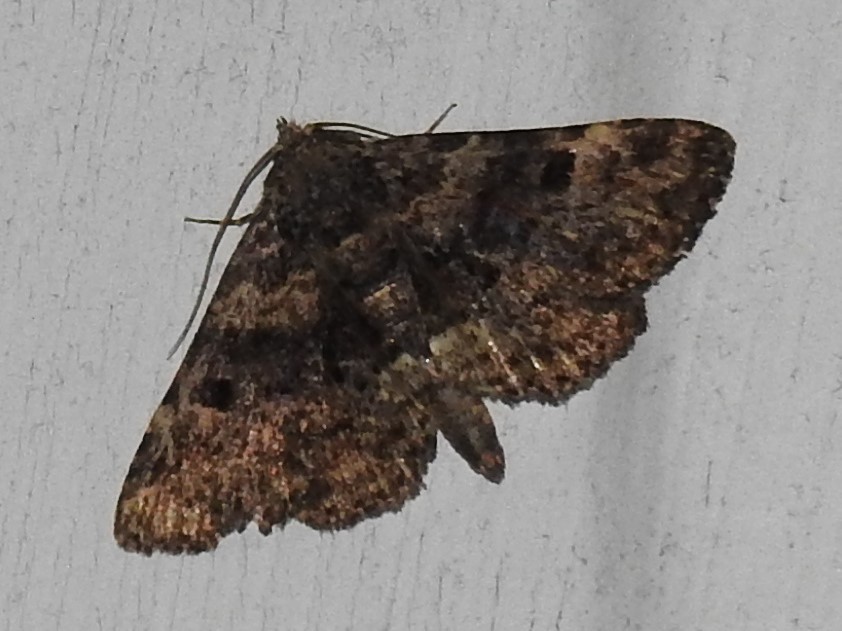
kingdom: Animalia
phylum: Arthropoda
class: Insecta
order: Lepidoptera
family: Erebidae
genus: Metalectra
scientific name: Metalectra discalis
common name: Common fungus moth
